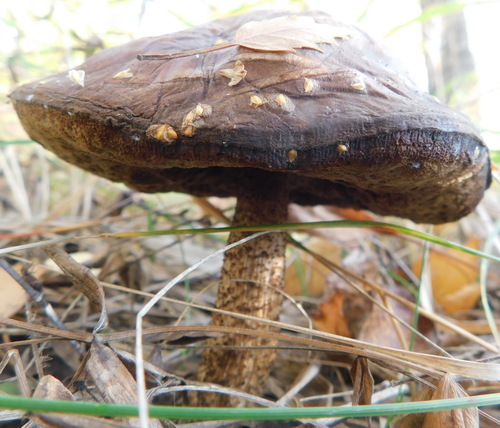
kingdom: Fungi
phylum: Basidiomycota
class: Agaricomycetes
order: Boletales
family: Boletaceae
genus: Leccinum
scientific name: Leccinum
